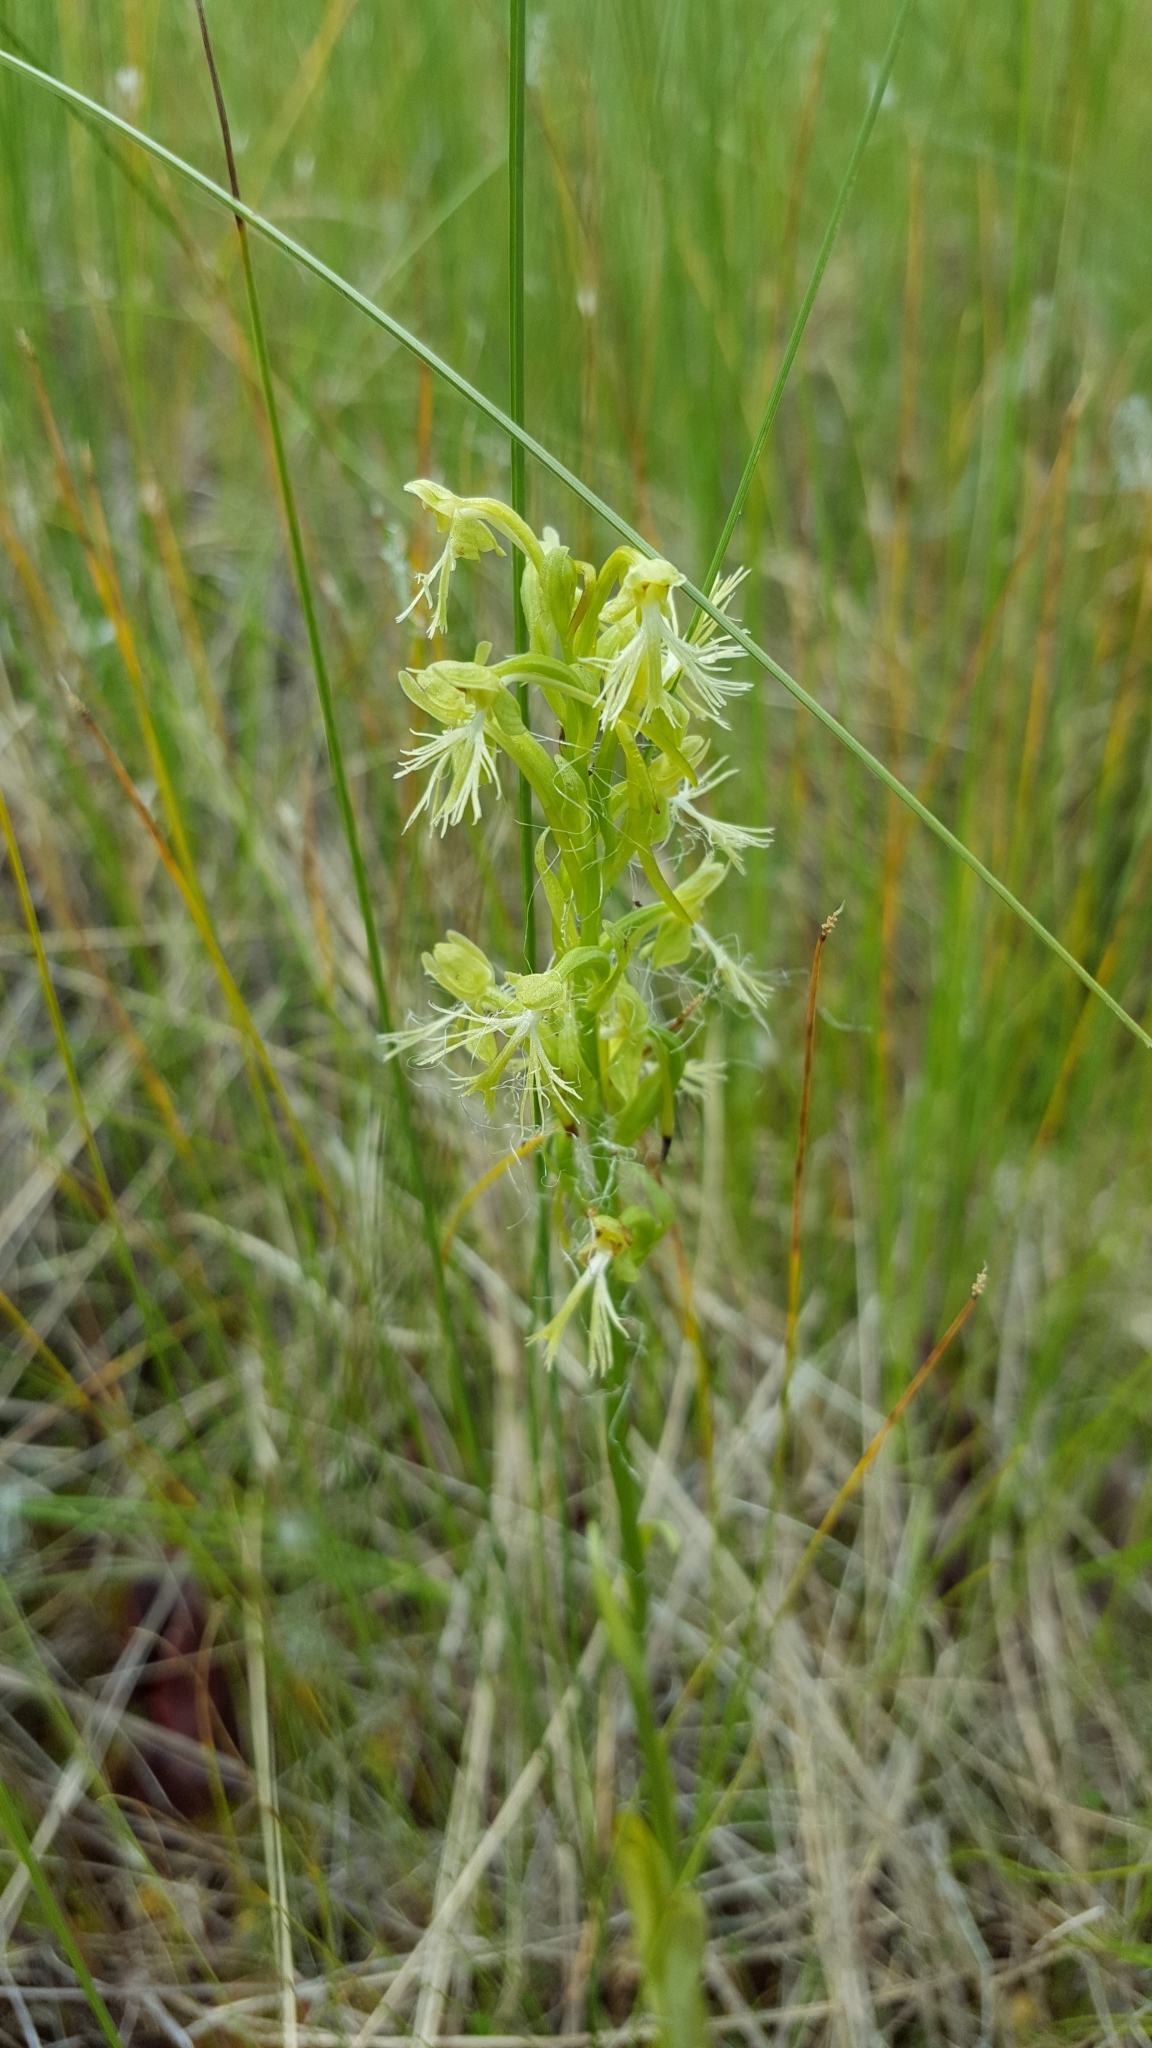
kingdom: Plantae
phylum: Tracheophyta
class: Liliopsida
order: Asparagales
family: Orchidaceae
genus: Platanthera
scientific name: Platanthera lacera
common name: Green fringed orchid
